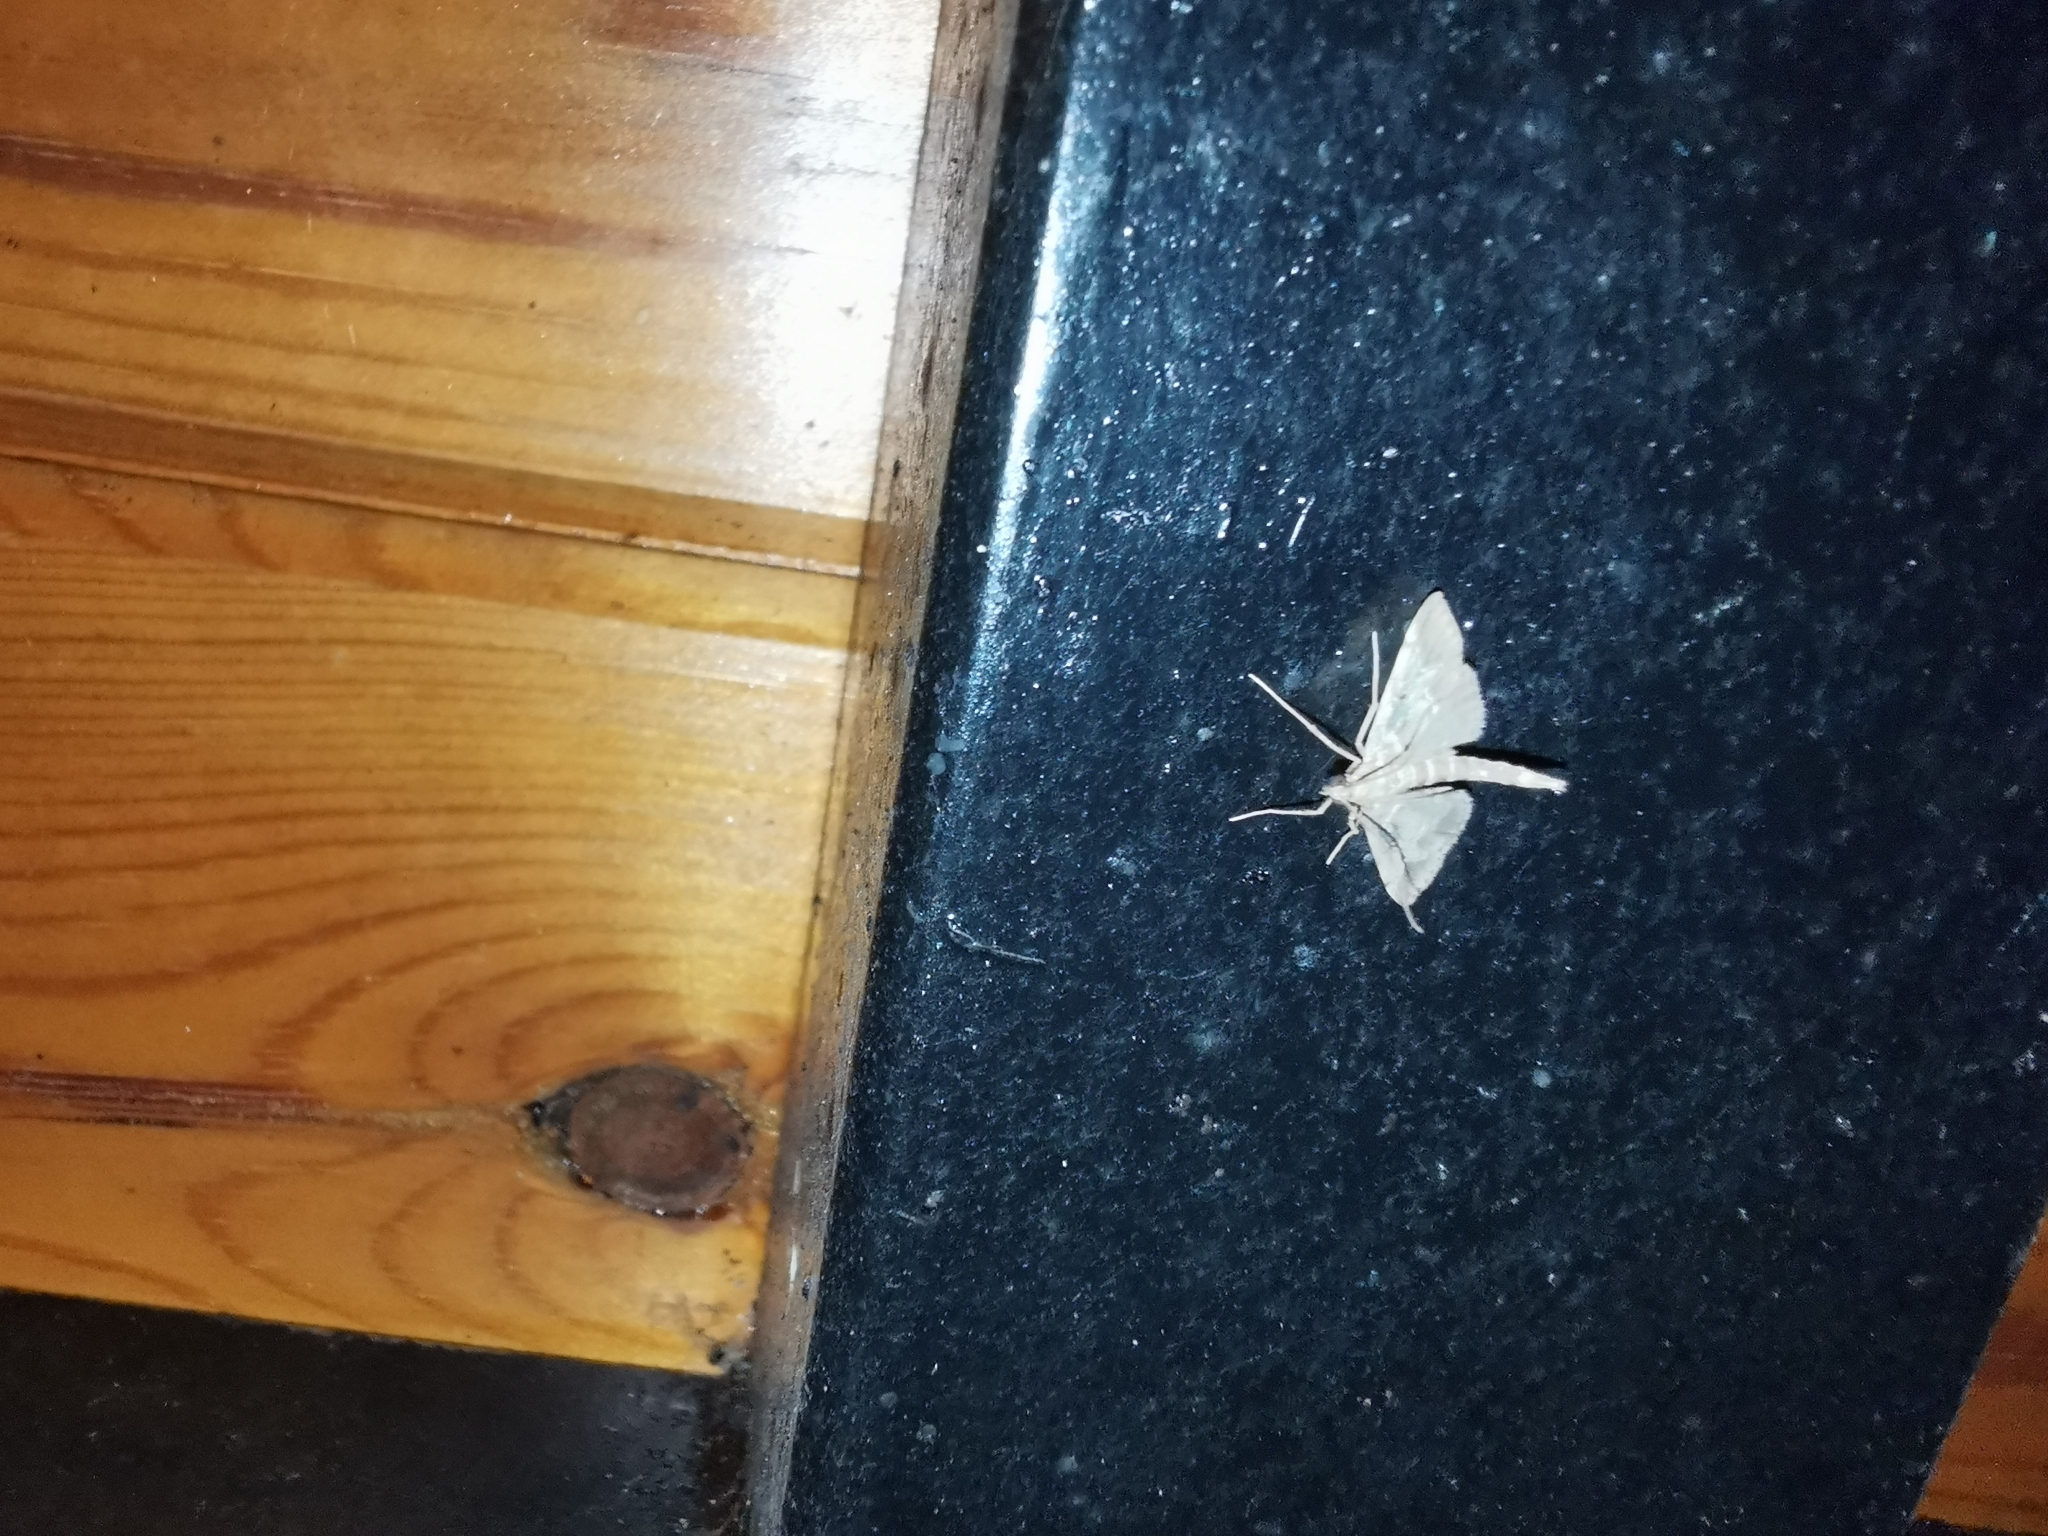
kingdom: Animalia
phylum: Arthropoda
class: Insecta
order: Lepidoptera
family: Crambidae
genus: Duponchelia
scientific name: Duponchelia fovealis
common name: Crambid moth
